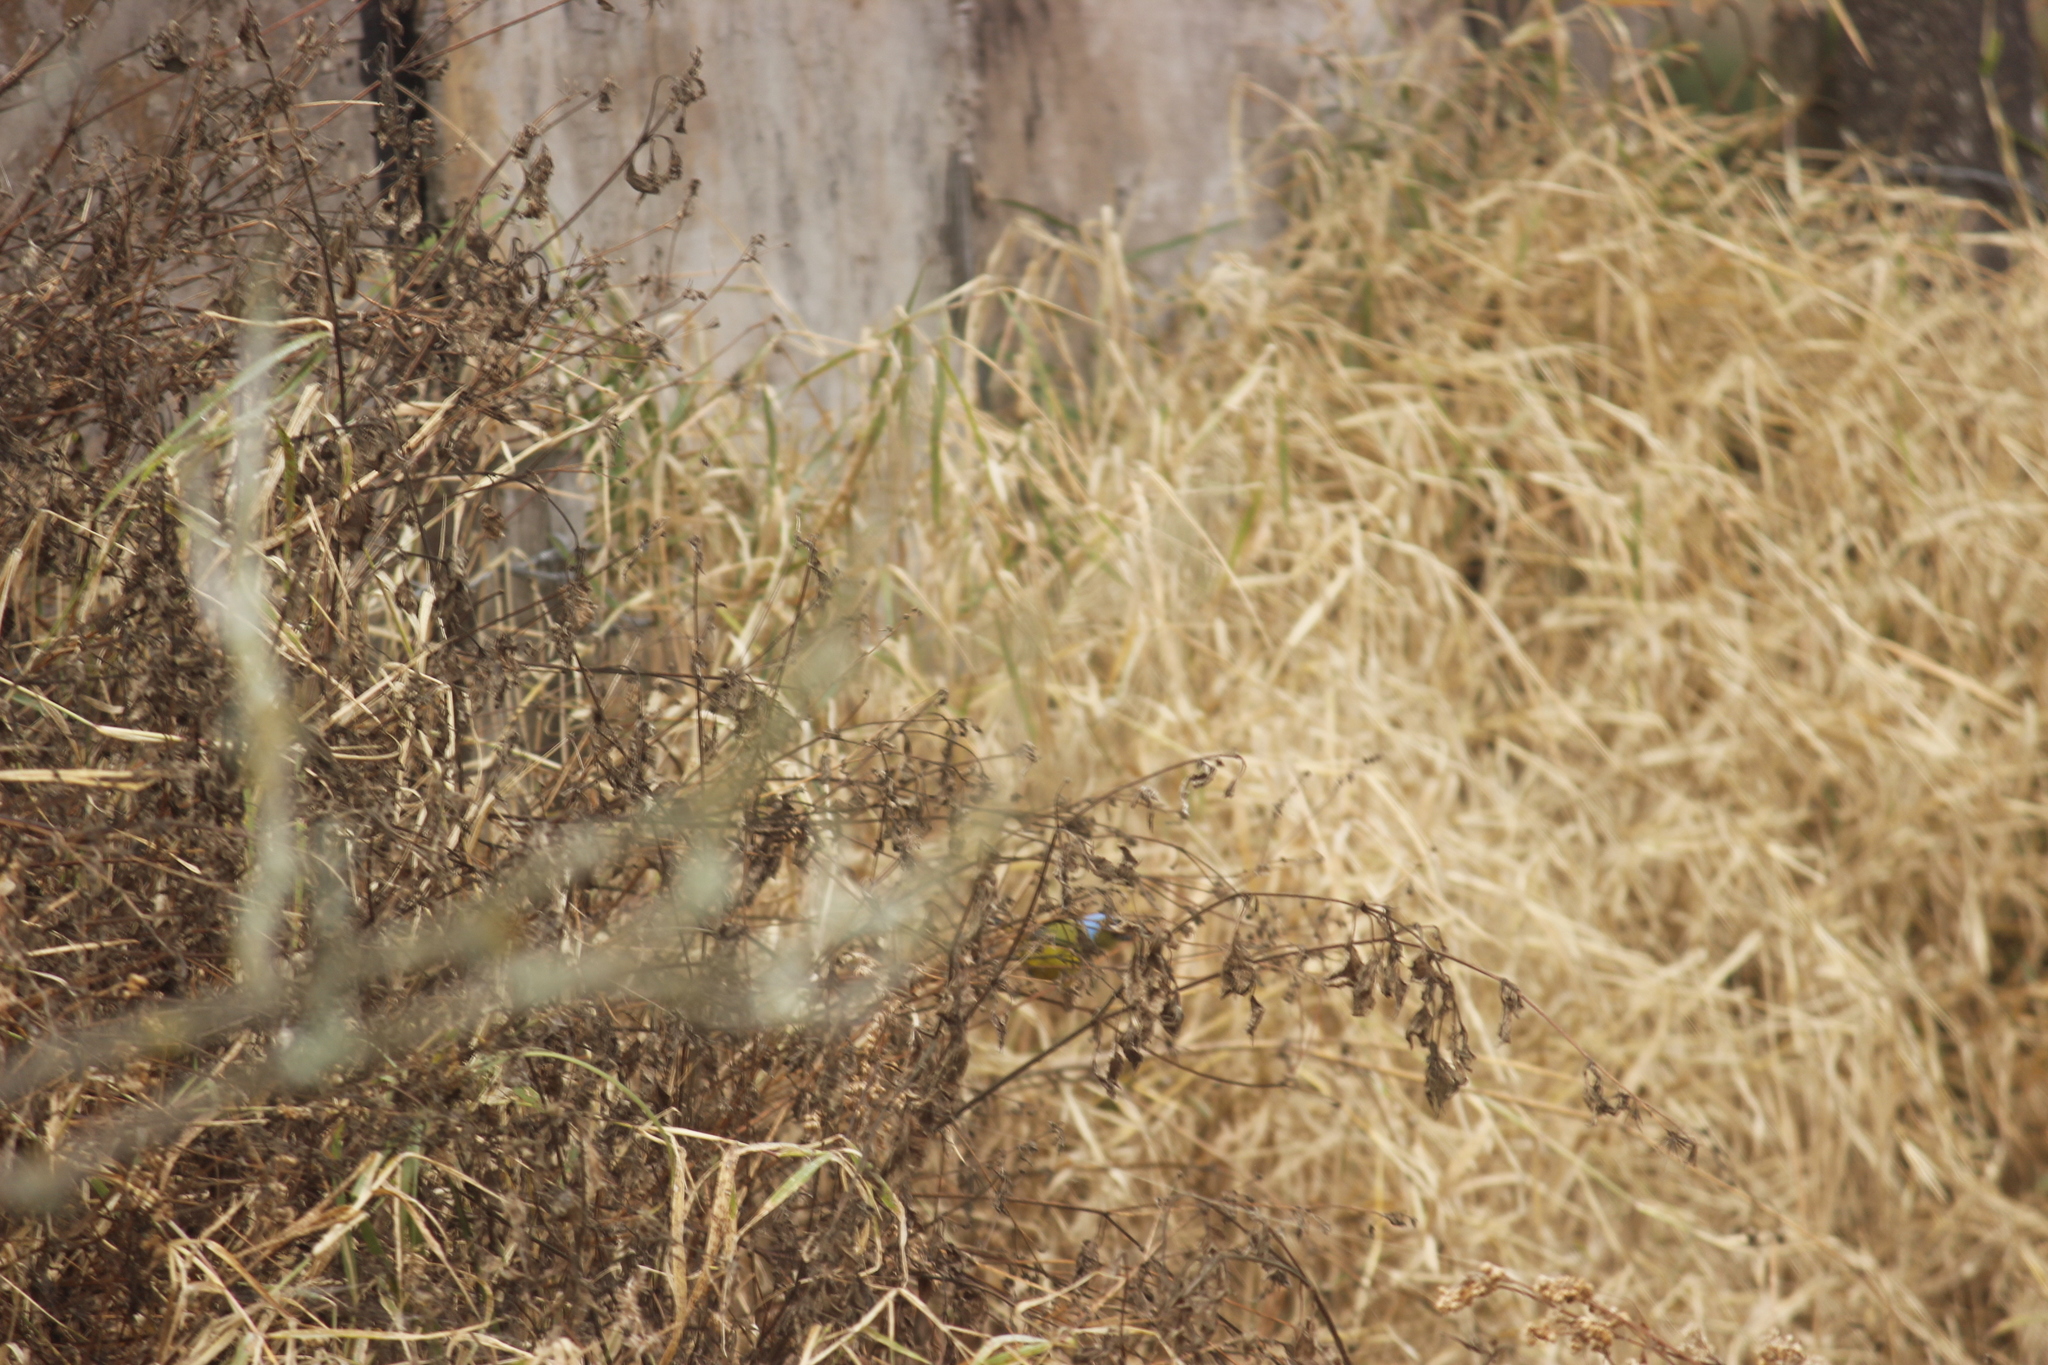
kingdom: Animalia
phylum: Chordata
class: Aves
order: Passeriformes
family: Thraupidae
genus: Rauenia
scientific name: Rauenia bonariensis
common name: Blue-and-yellow tanager
